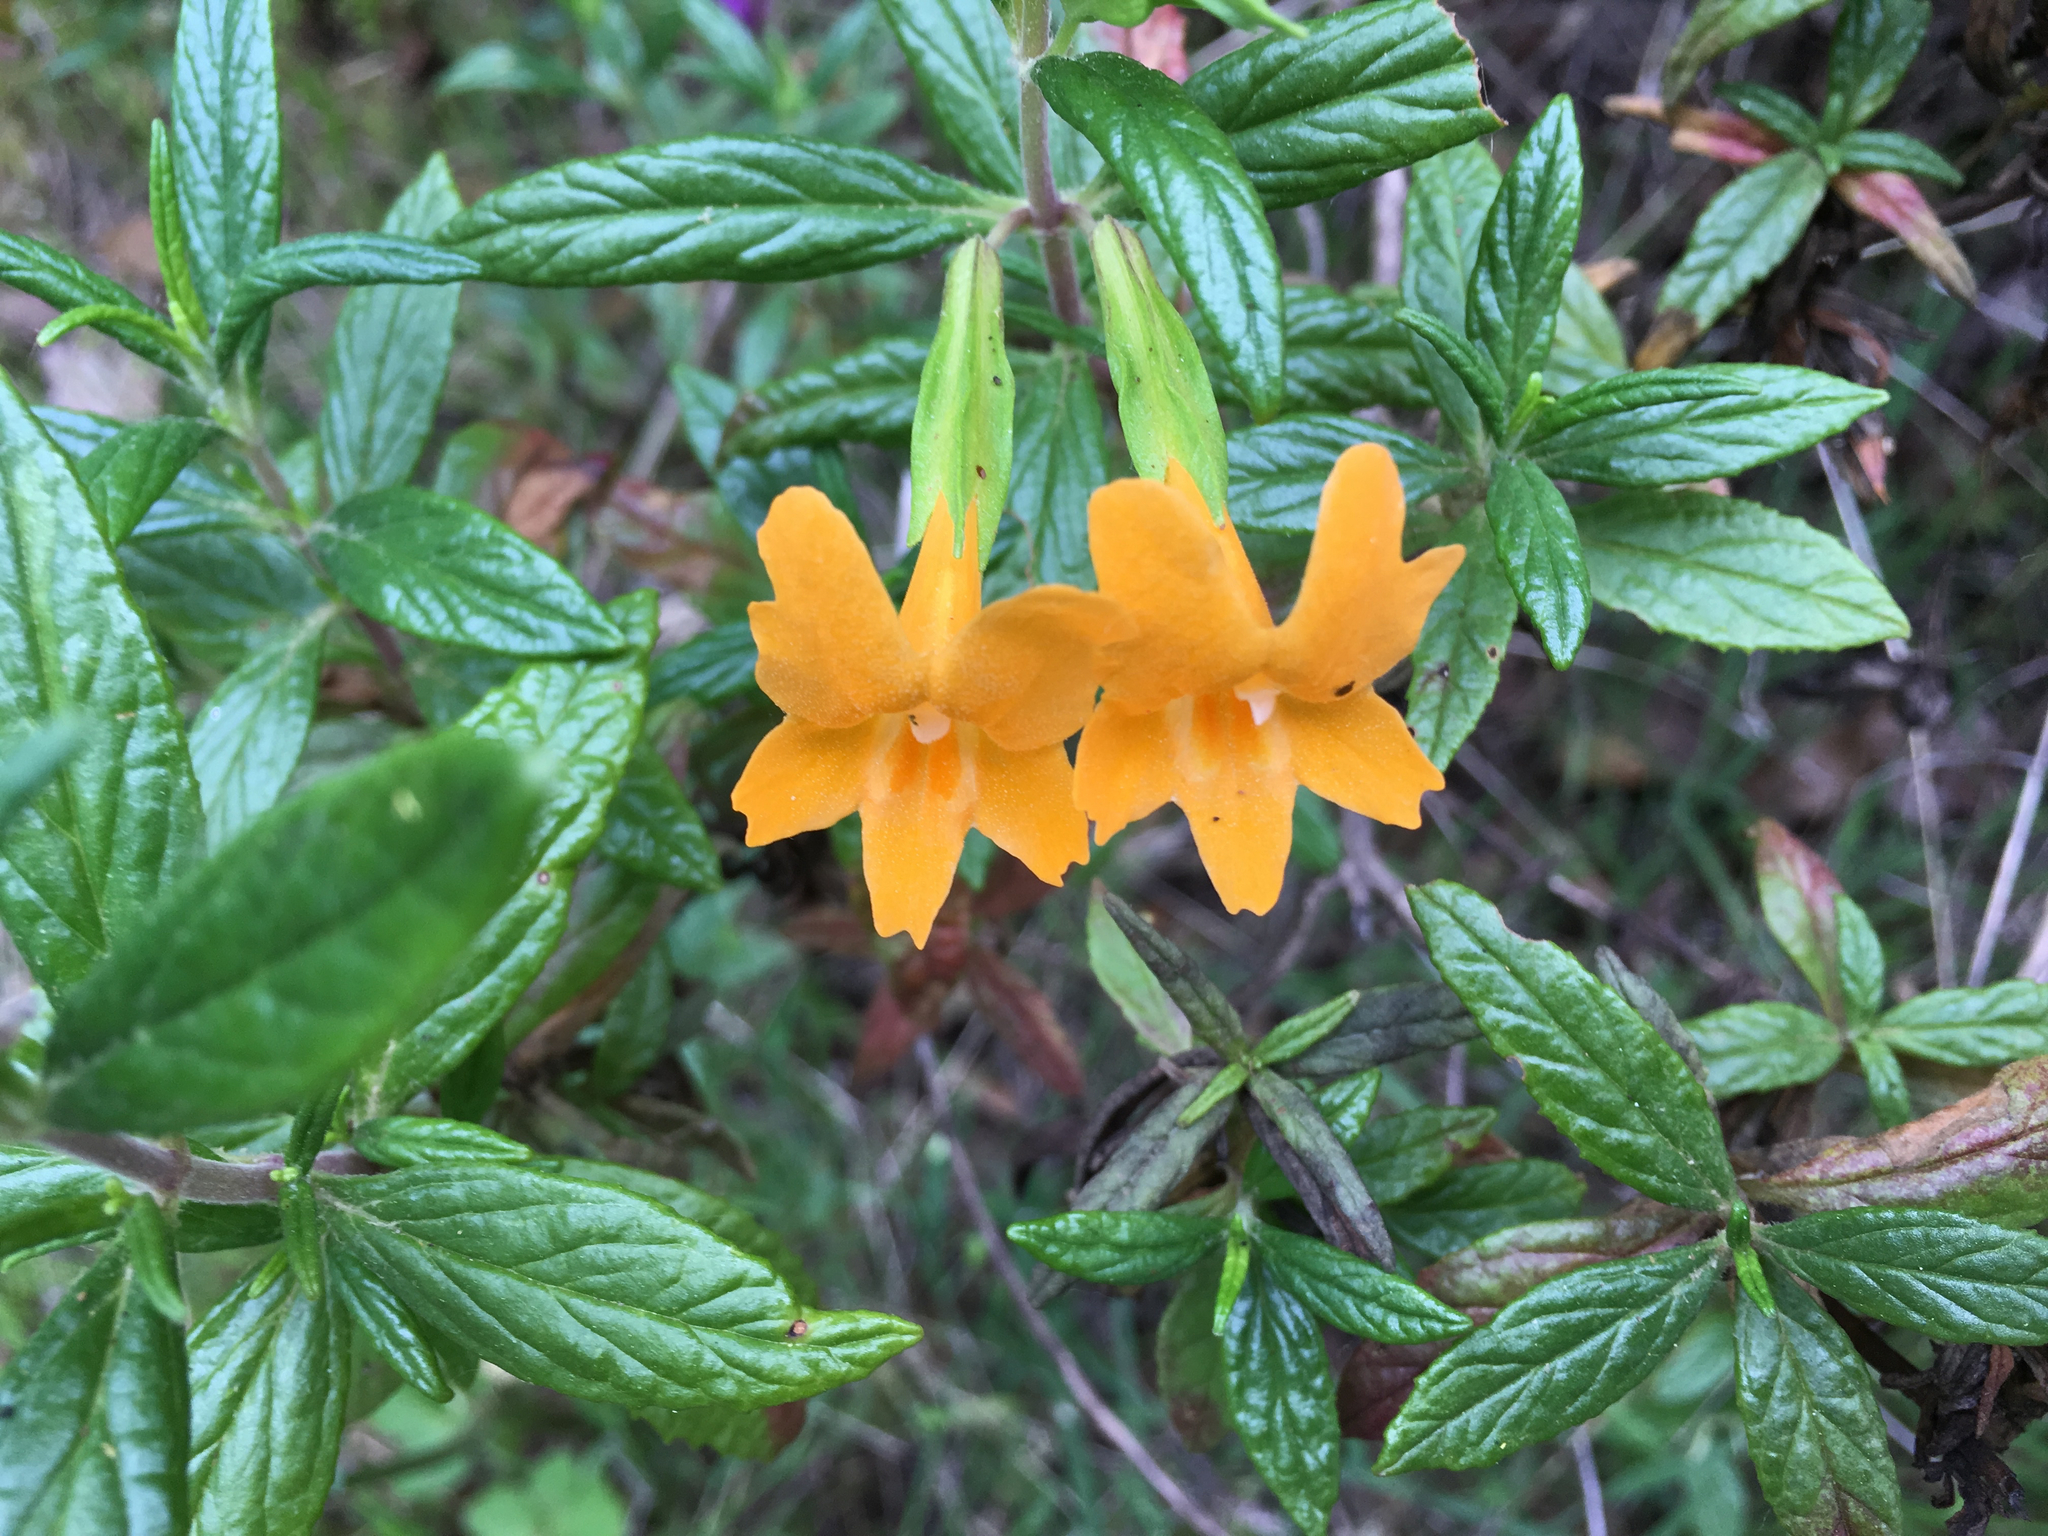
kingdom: Plantae
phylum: Tracheophyta
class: Magnoliopsida
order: Lamiales
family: Phrymaceae
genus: Diplacus
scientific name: Diplacus aurantiacus
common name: Bush monkey-flower
